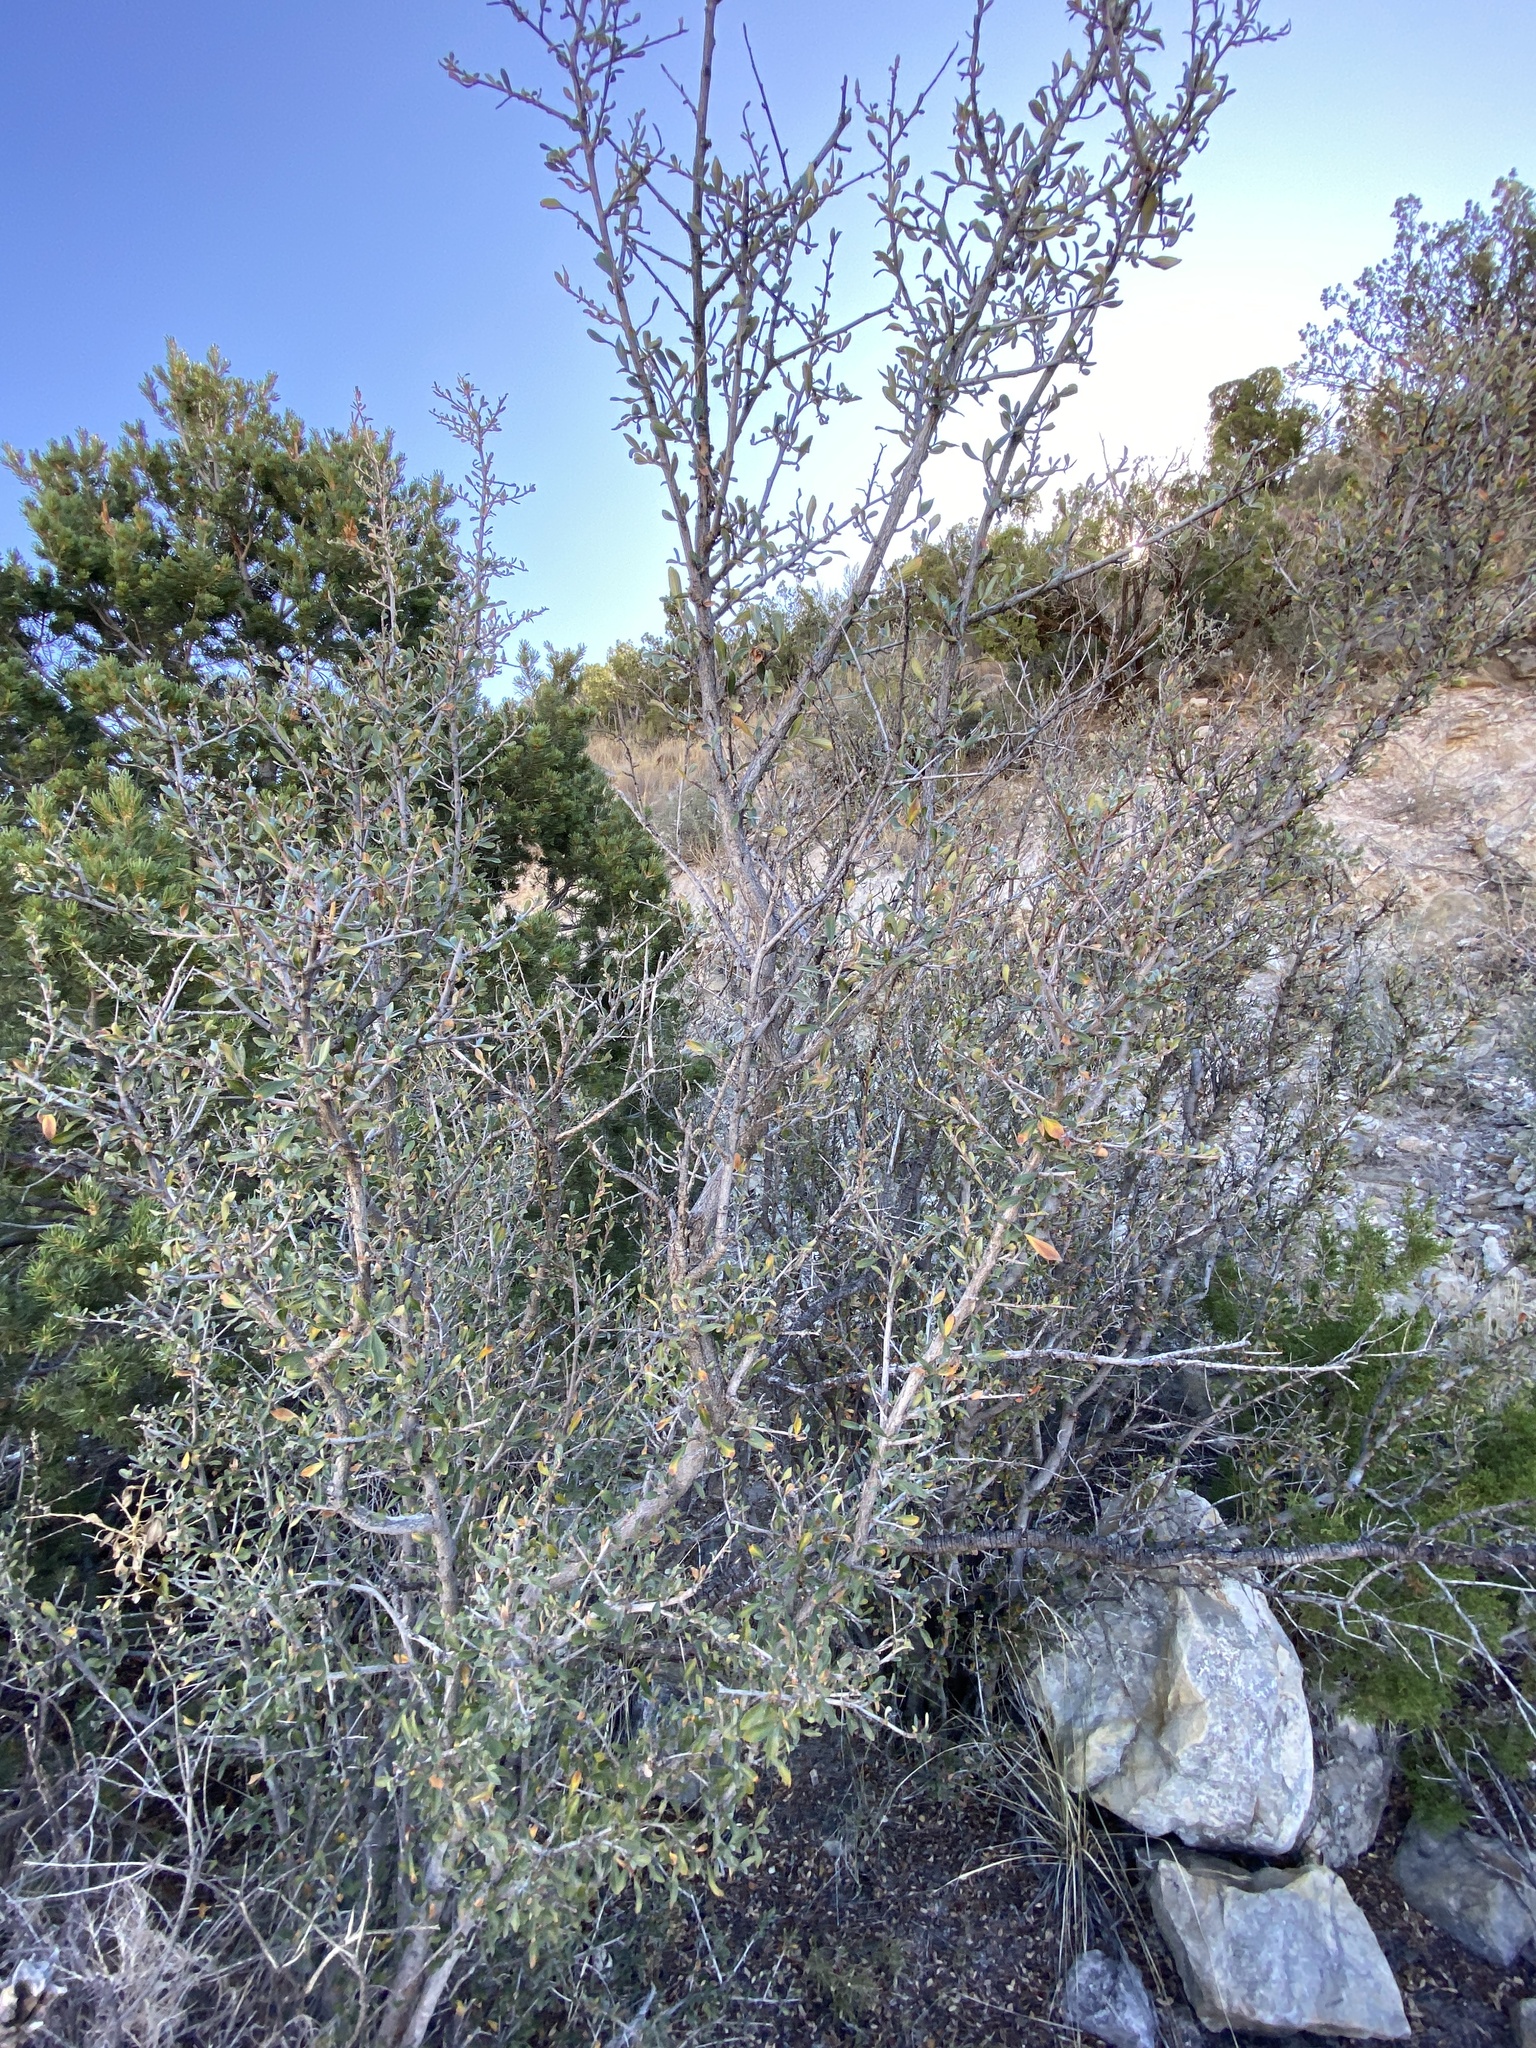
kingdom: Plantae
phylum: Tracheophyta
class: Magnoliopsida
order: Rosales
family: Rosaceae
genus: Cercocarpus
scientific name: Cercocarpus breviflorus
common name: Wright's mountain-mahogany
